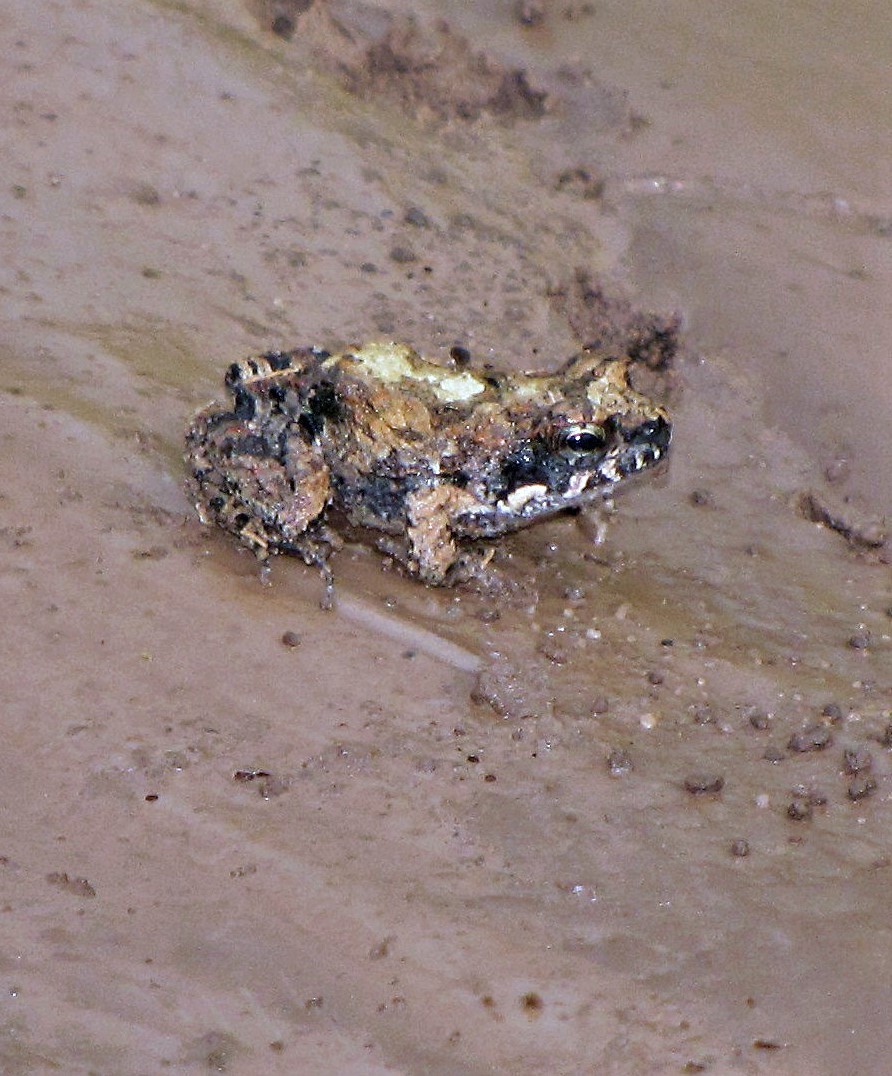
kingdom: Animalia
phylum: Chordata
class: Amphibia
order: Anura
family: Leptodactylidae
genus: Physalaemus
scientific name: Physalaemus biligonigerus
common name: Weeping frog
